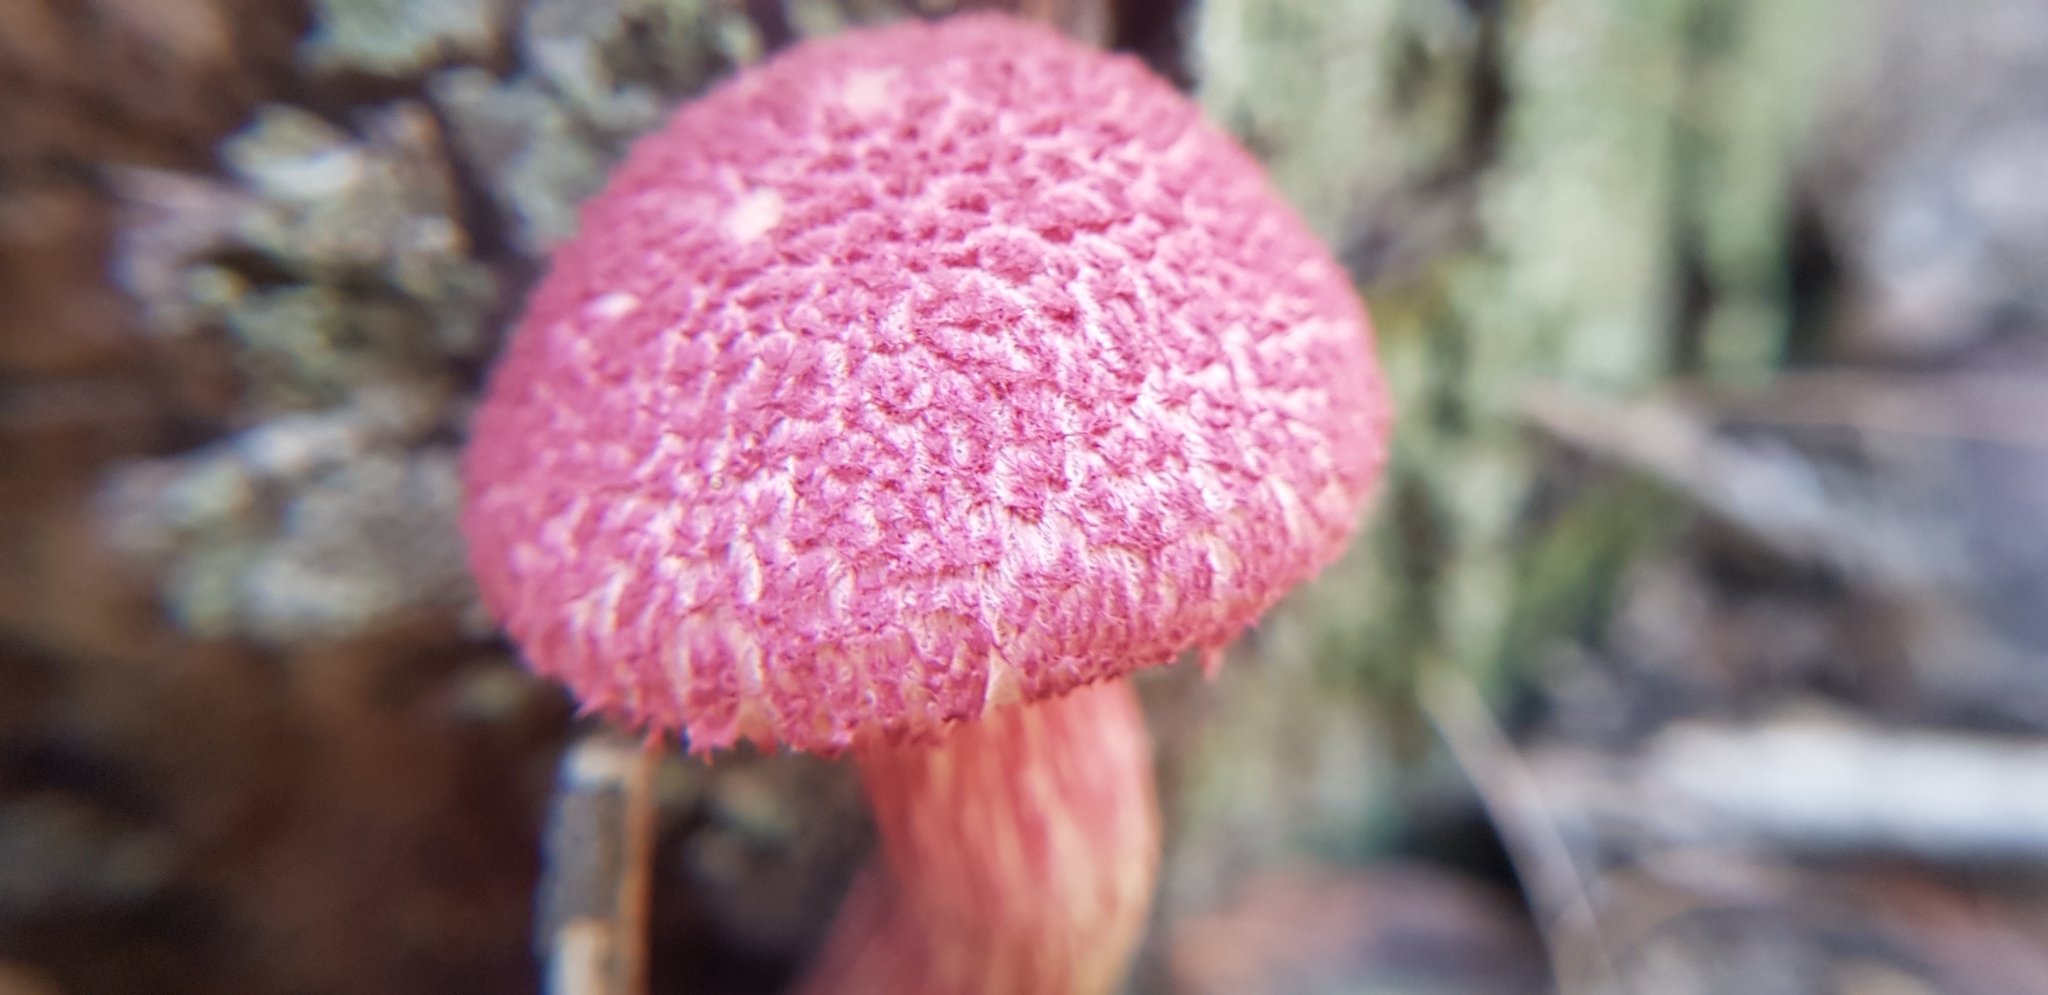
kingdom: Fungi
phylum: Basidiomycota
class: Agaricomycetes
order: Boletales
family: Boletaceae
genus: Boletellus
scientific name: Boletellus emodensis
